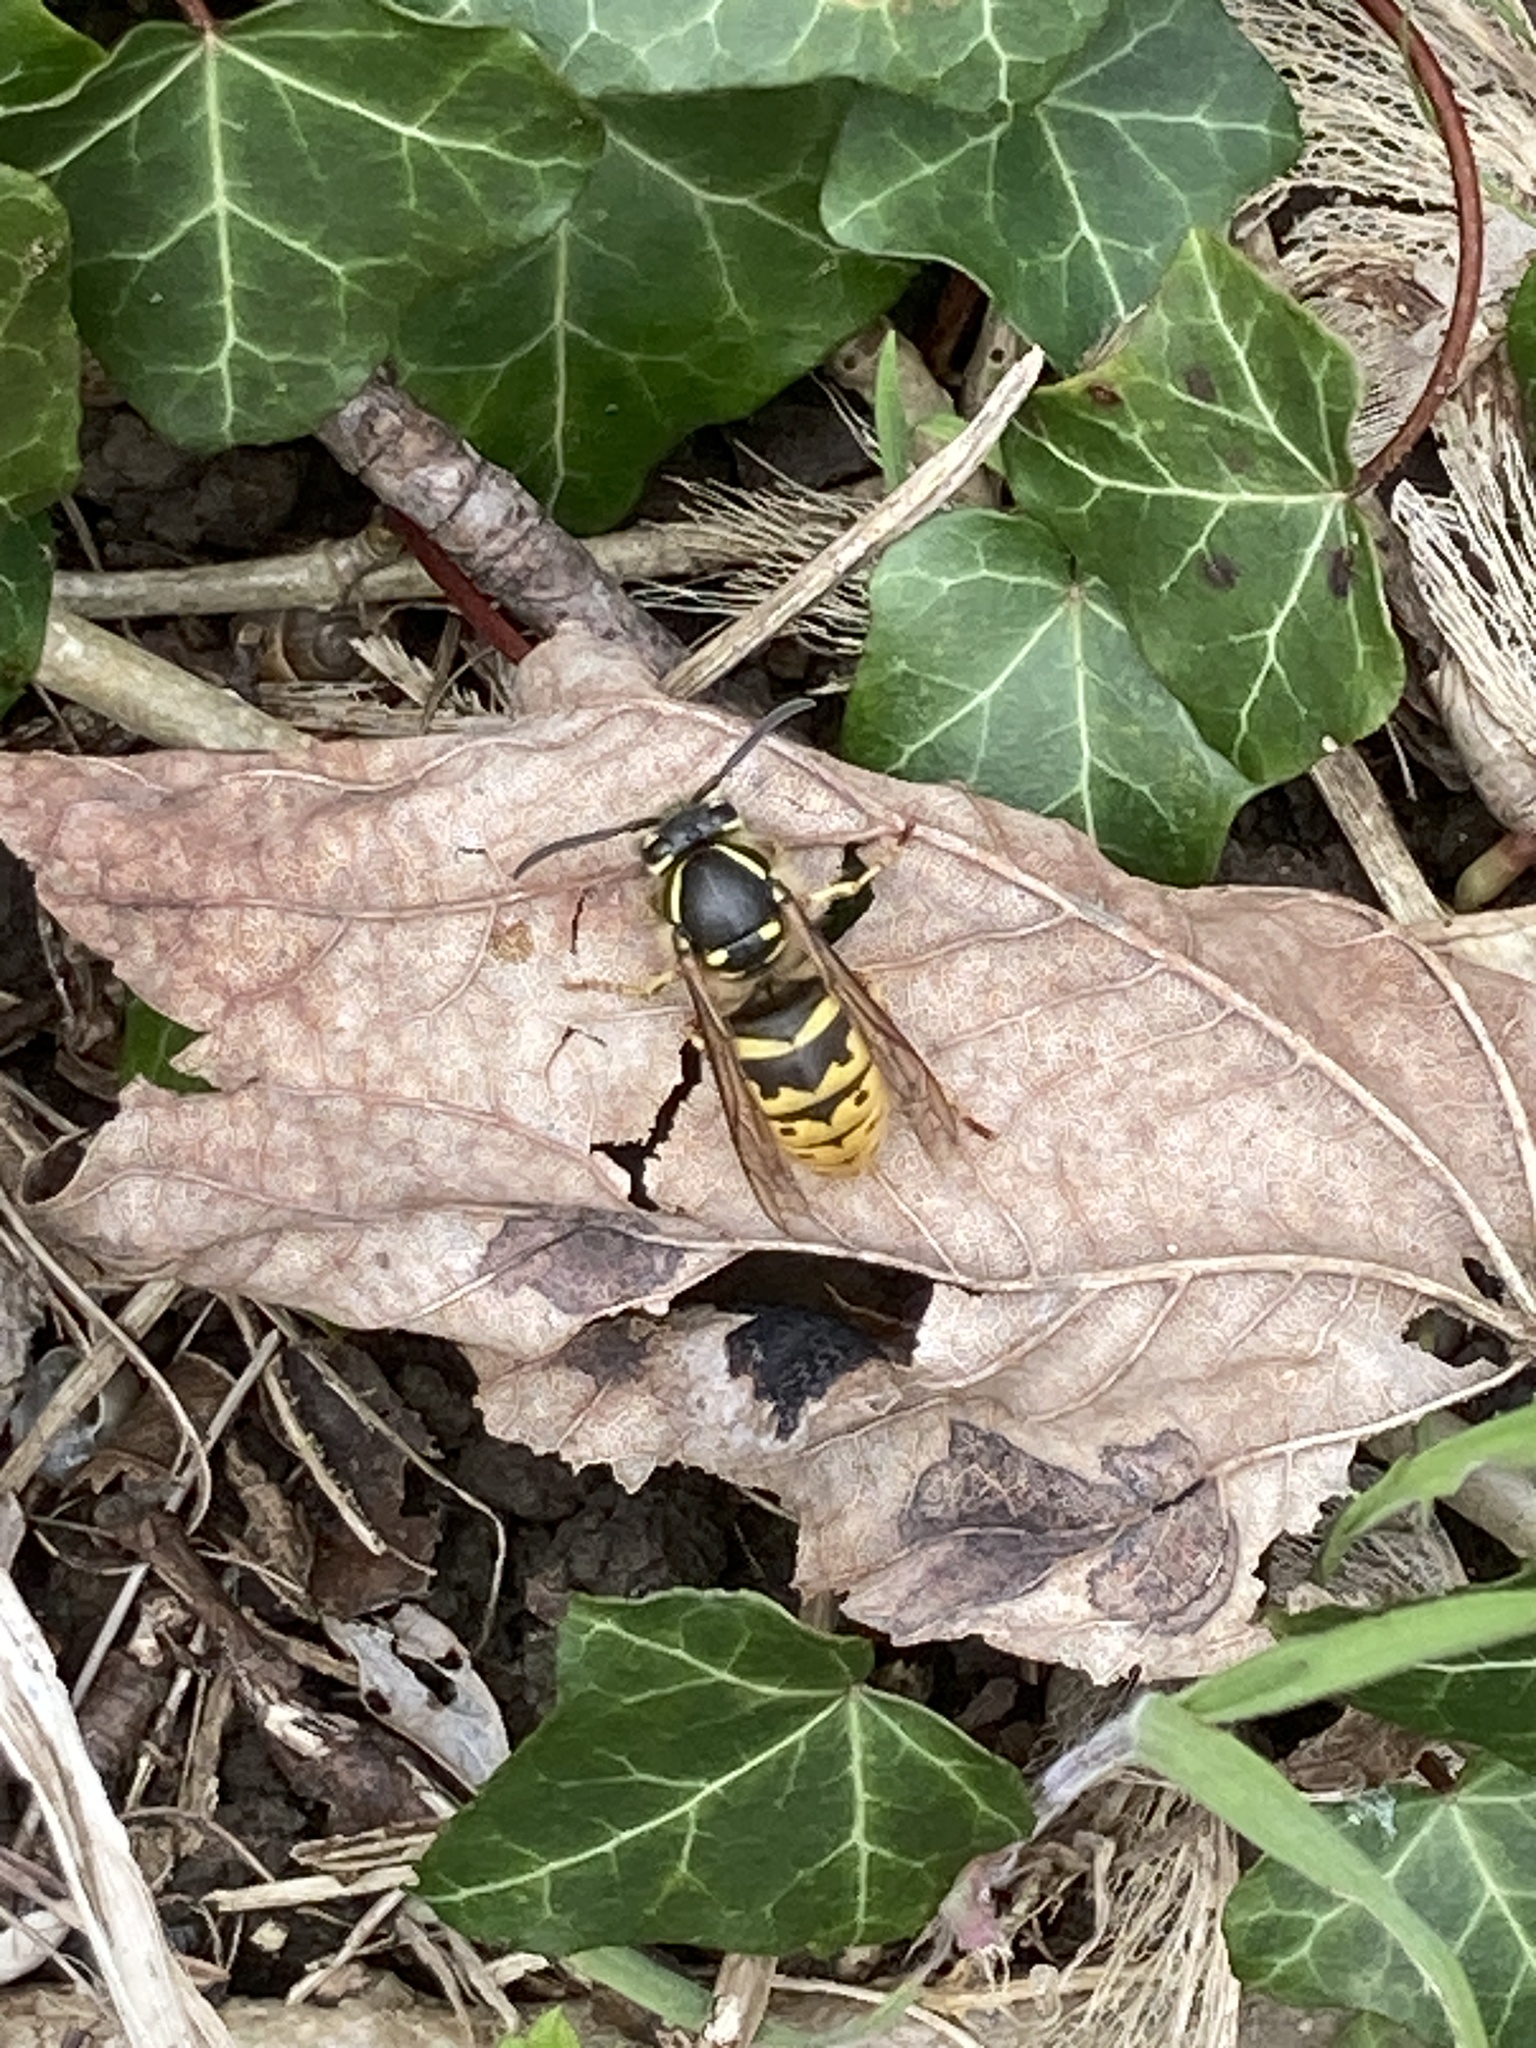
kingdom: Animalia
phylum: Arthropoda
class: Insecta
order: Hymenoptera
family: Vespidae
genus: Vespula
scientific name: Vespula vulgaris
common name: Common wasp
